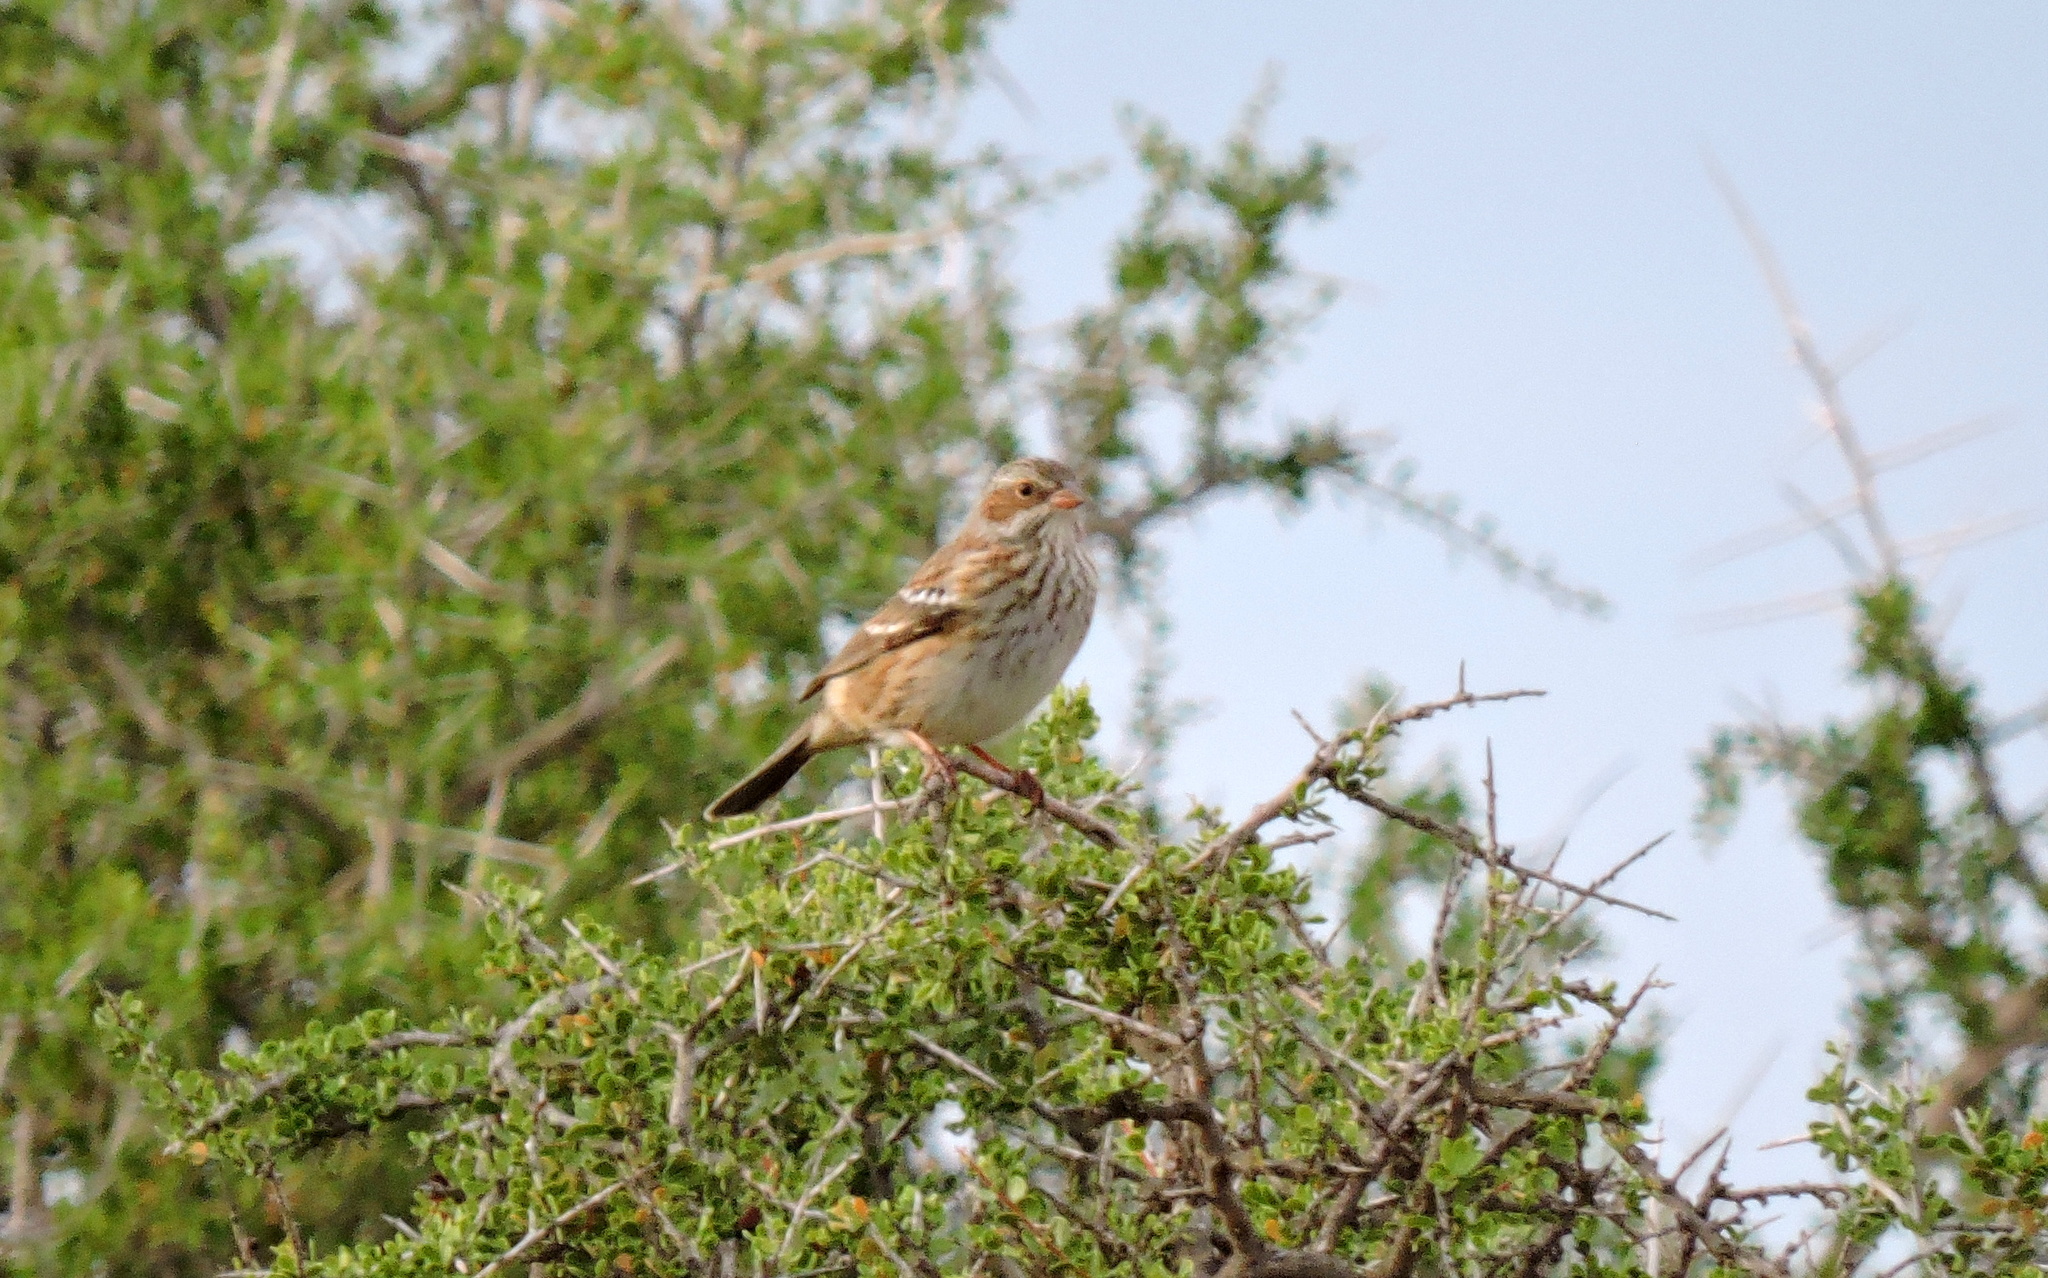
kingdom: Animalia
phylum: Chordata
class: Aves
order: Passeriformes
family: Thraupidae
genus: Rhopospina
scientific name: Rhopospina fruticeti
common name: Mourning sierra finch
